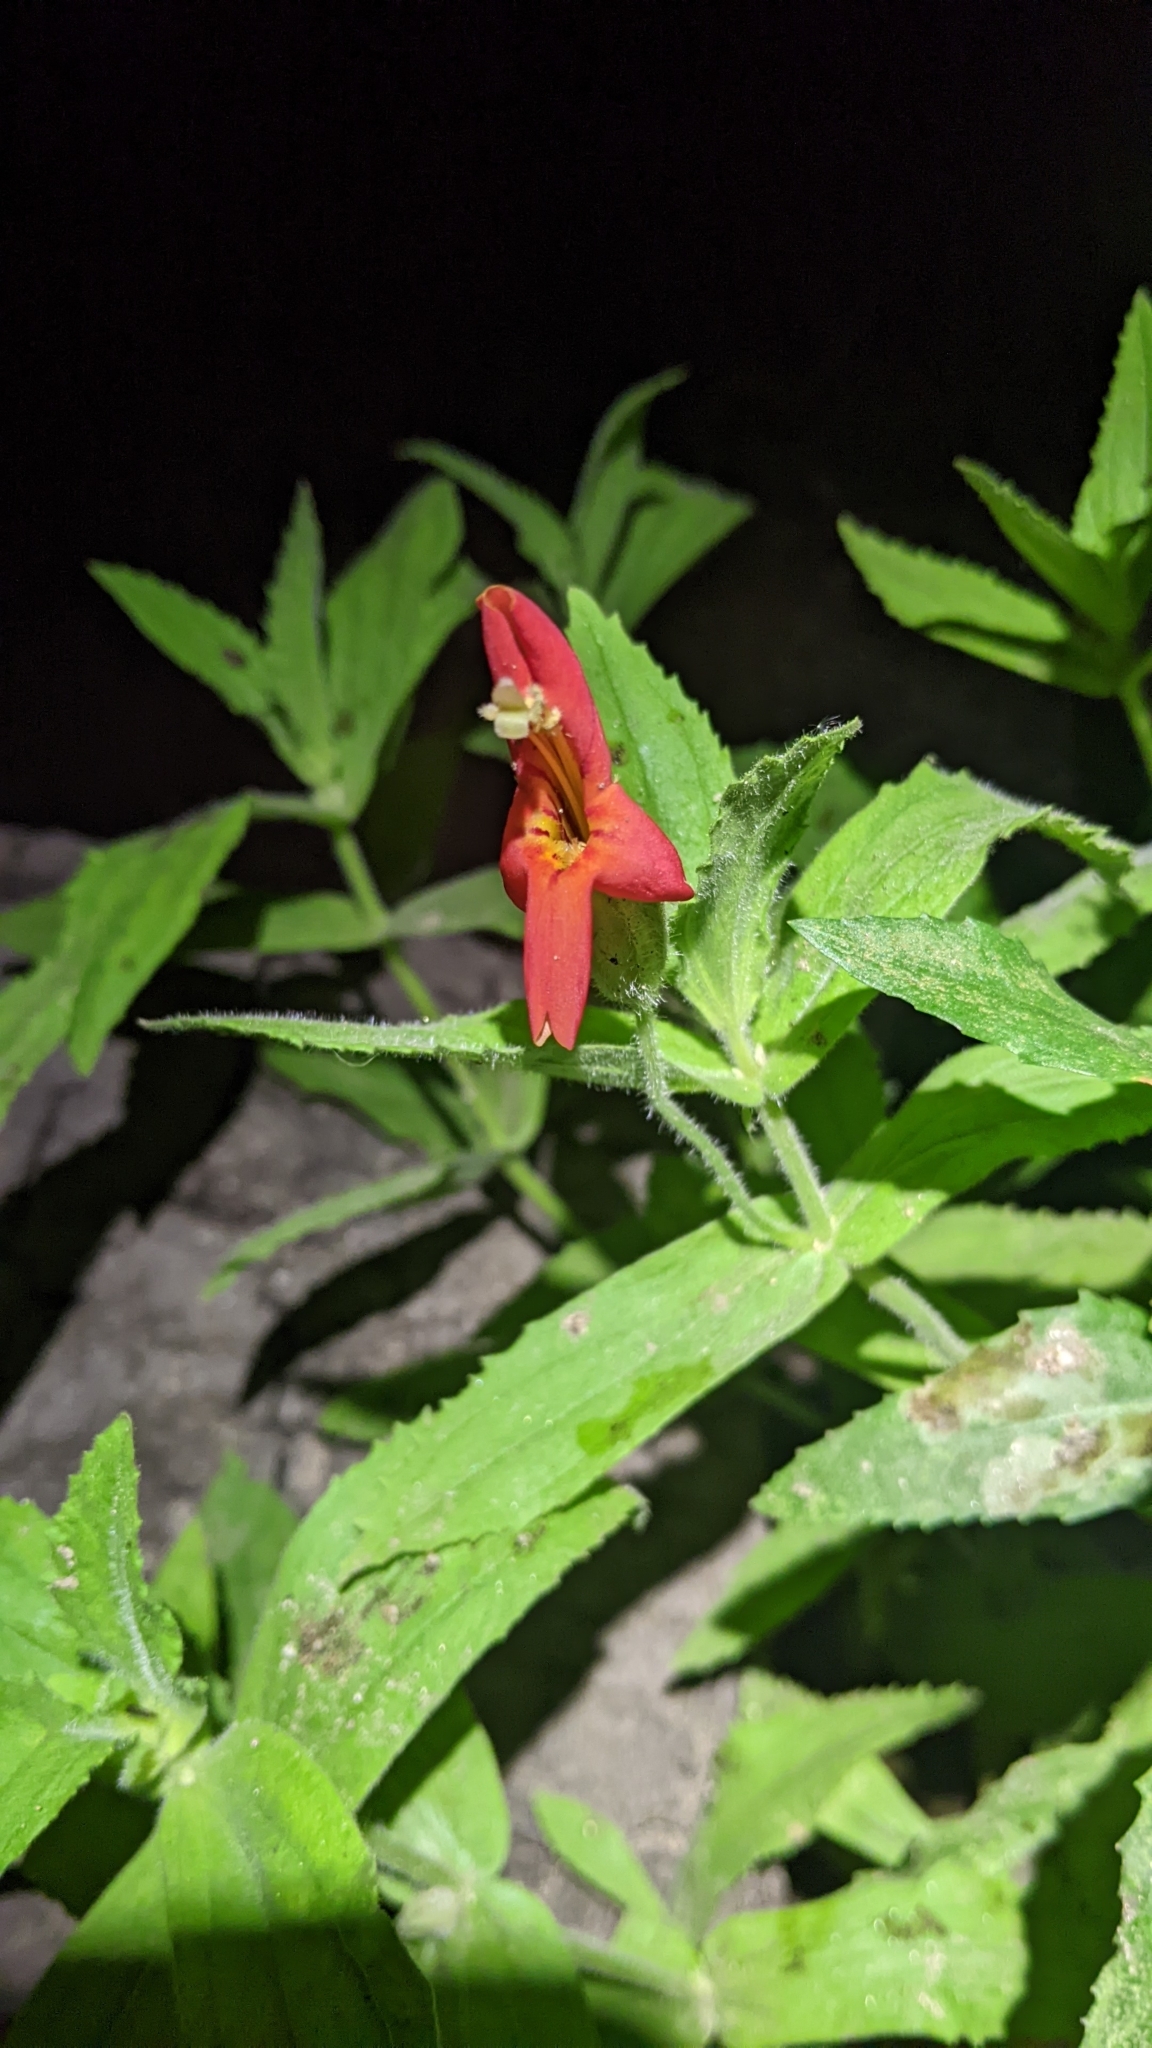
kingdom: Plantae
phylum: Tracheophyta
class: Magnoliopsida
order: Lamiales
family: Phrymaceae
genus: Erythranthe
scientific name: Erythranthe cardinalis
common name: Scarlet monkey-flower
